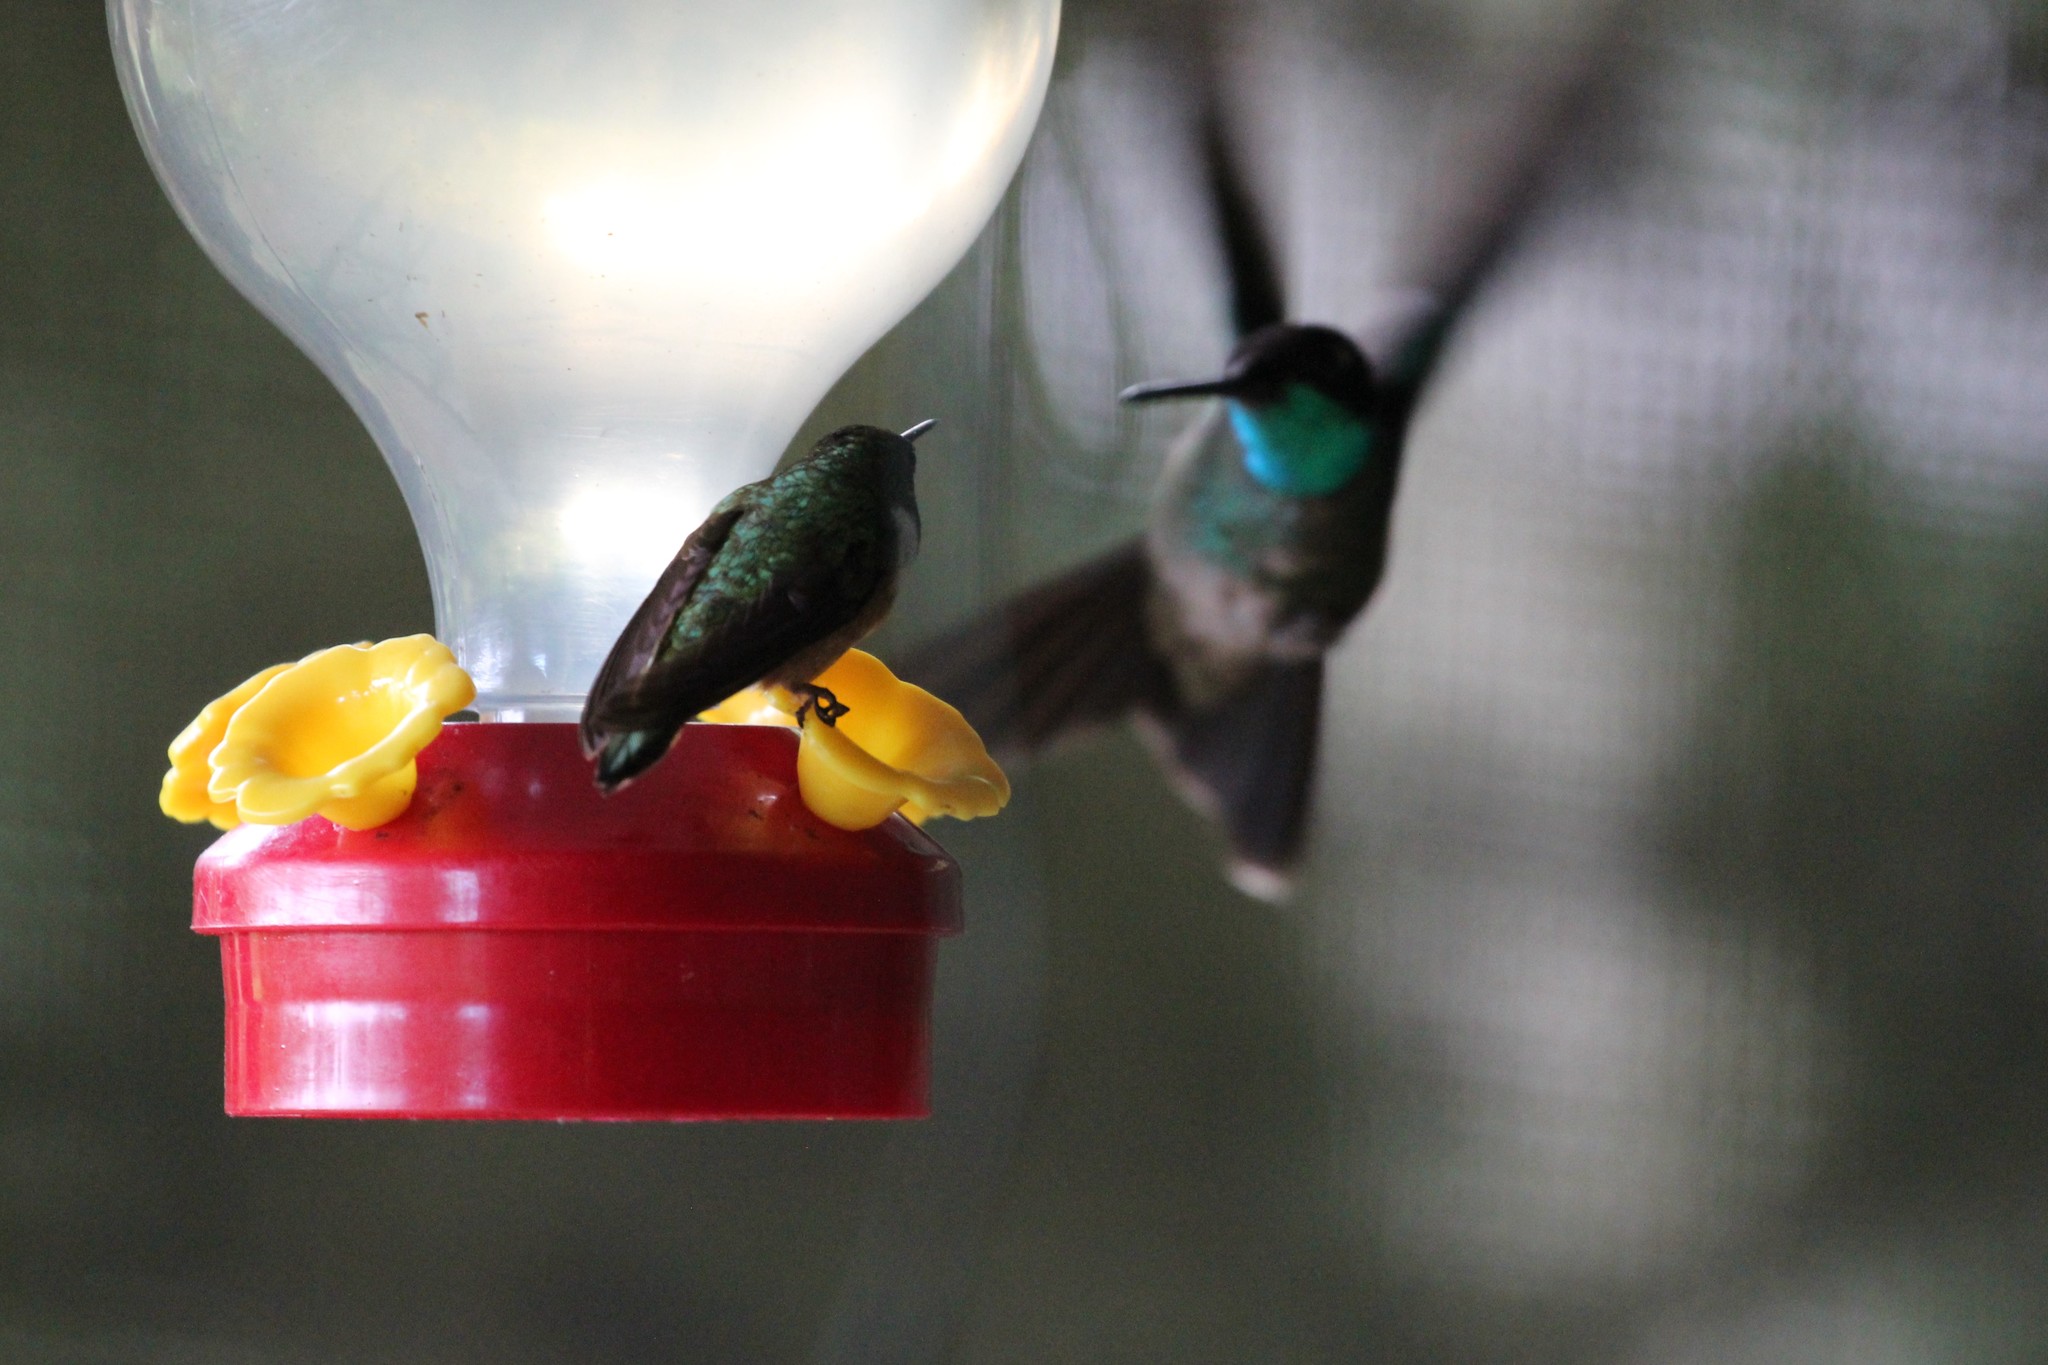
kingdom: Animalia
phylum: Chordata
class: Aves
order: Apodiformes
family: Trochilidae
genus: Eugenes
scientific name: Eugenes spectabilis
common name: Talamanca hummingbird
